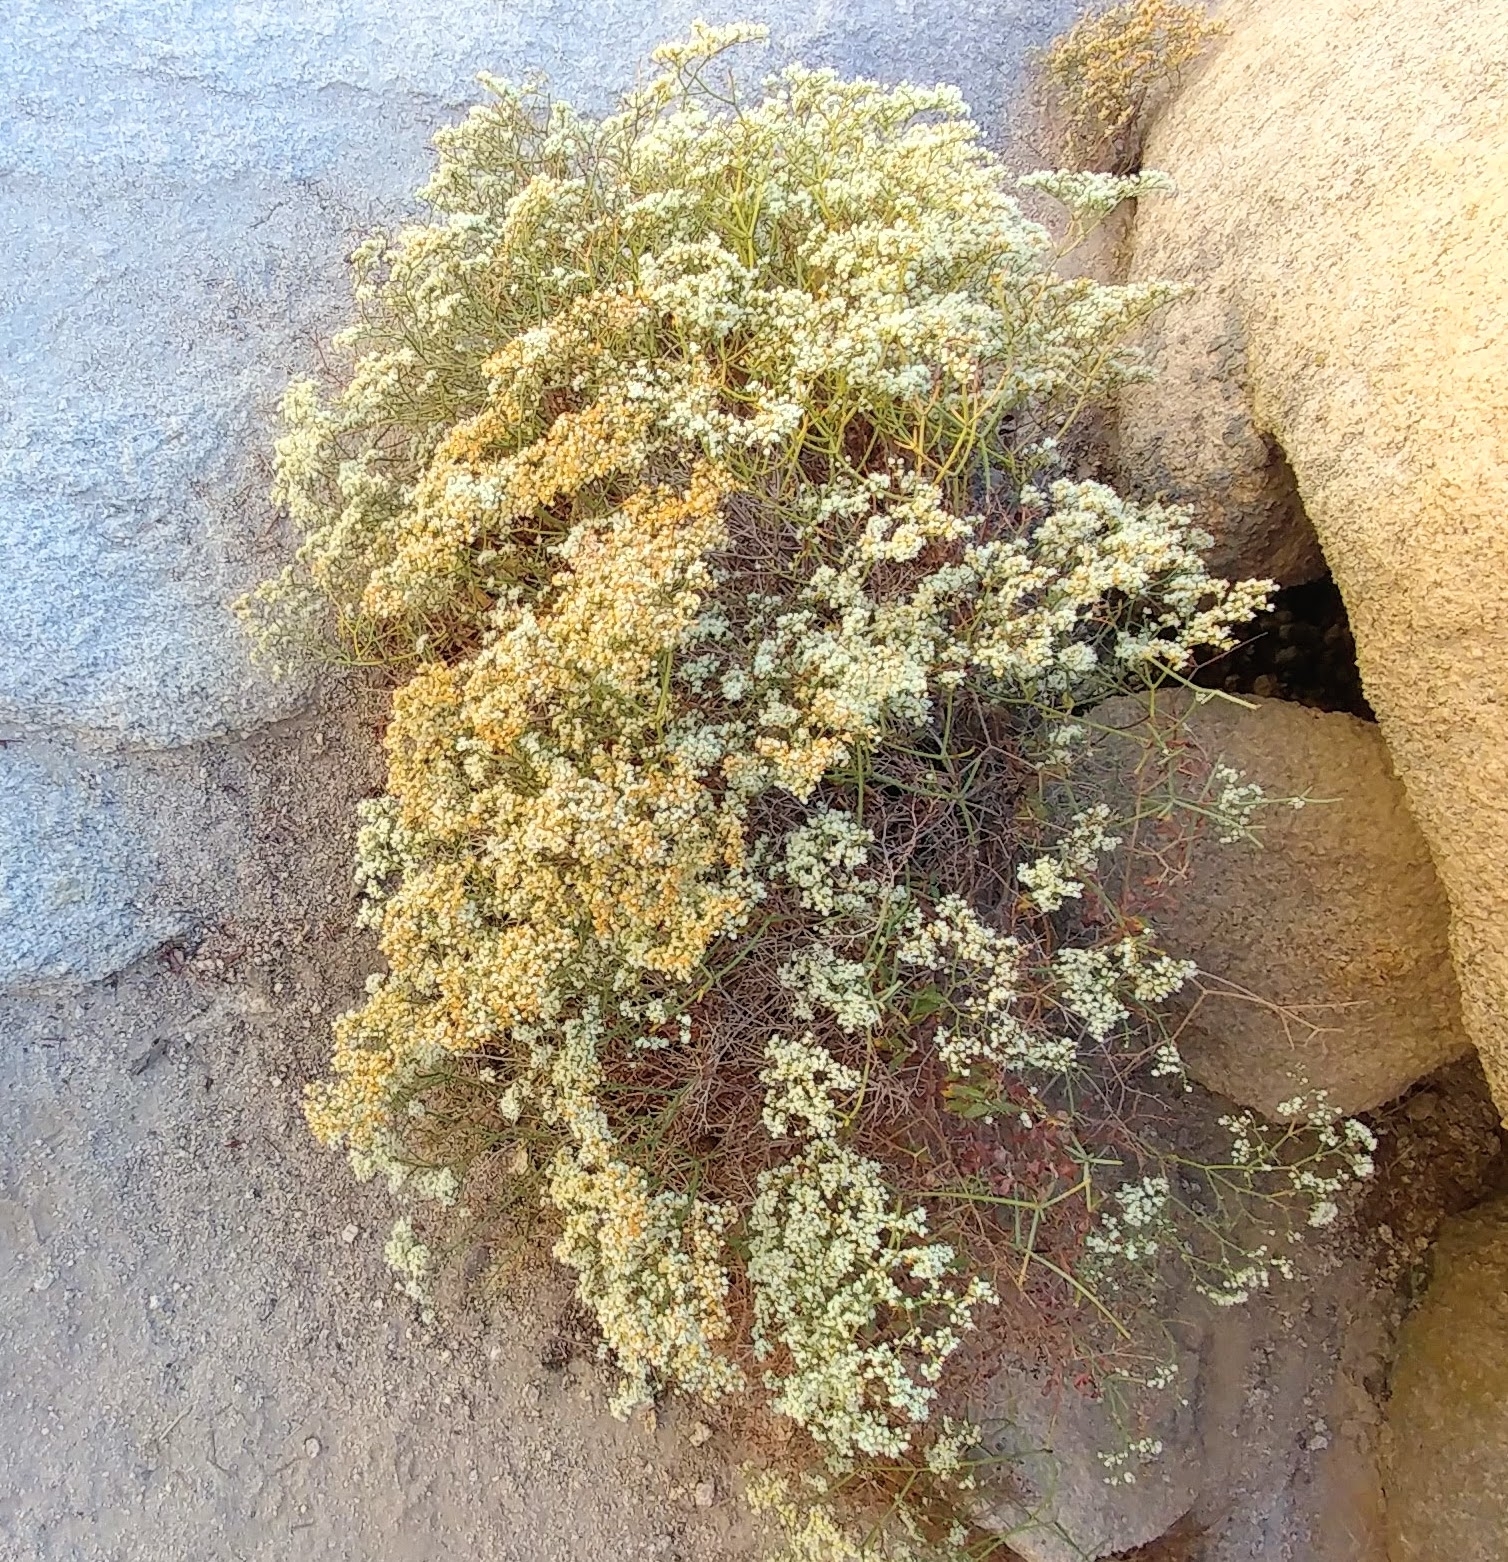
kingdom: Plantae
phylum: Tracheophyta
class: Magnoliopsida
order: Caryophyllales
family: Polygonaceae
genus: Eriogonum
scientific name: Eriogonum heermannii
